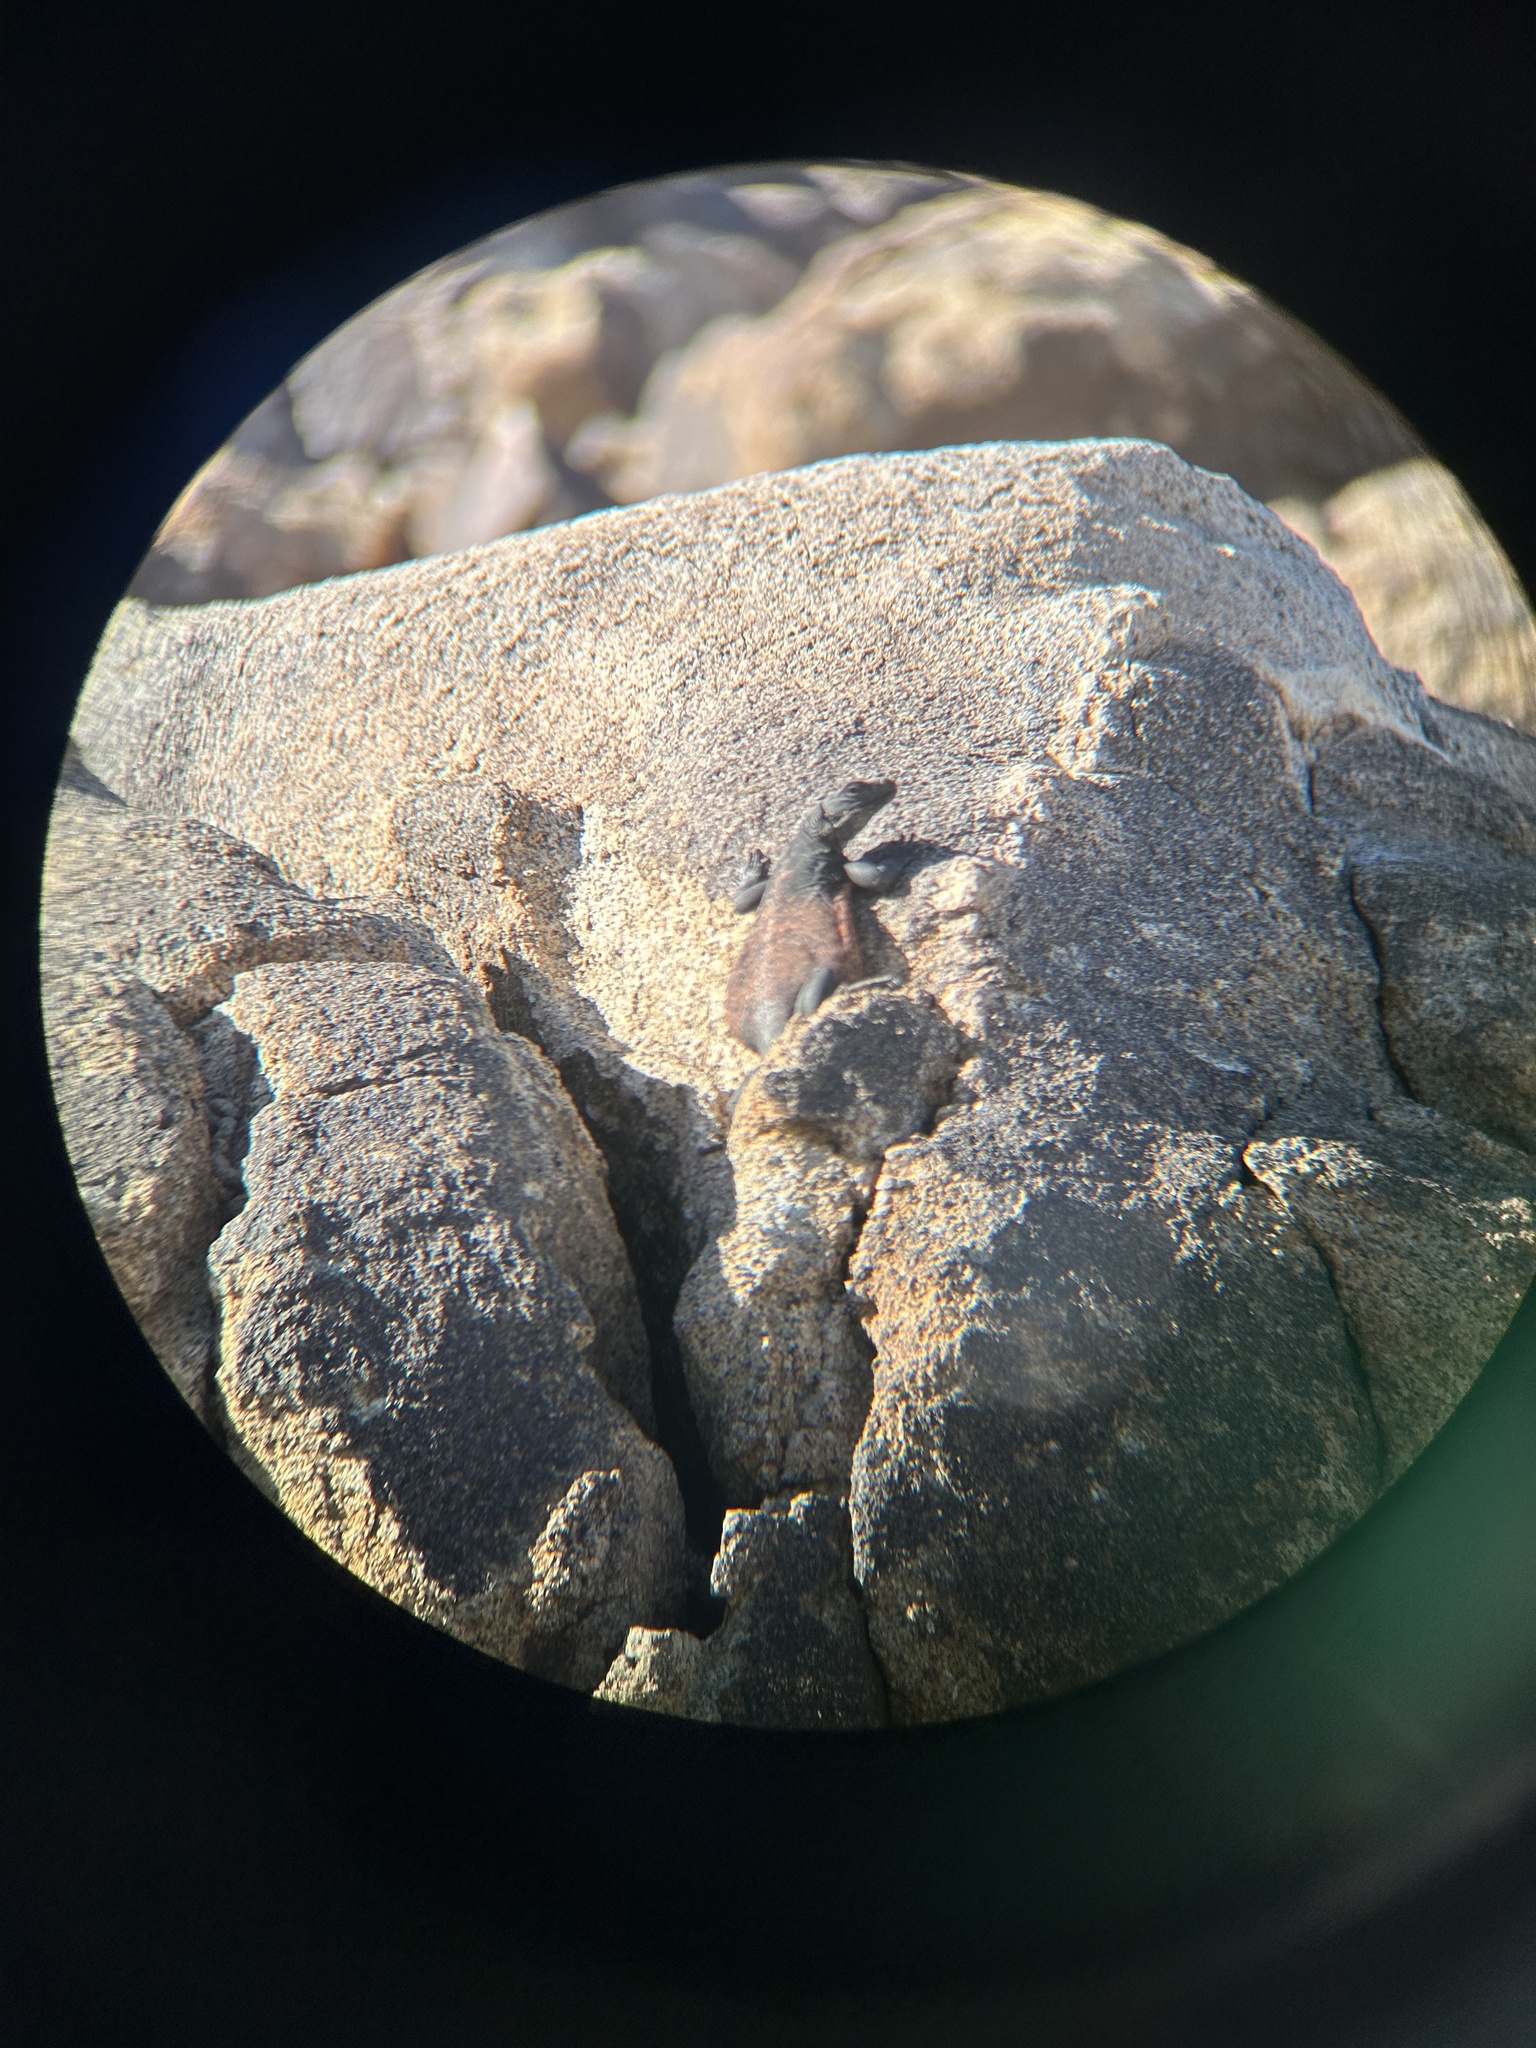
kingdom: Animalia
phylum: Chordata
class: Squamata
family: Iguanidae
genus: Sauromalus
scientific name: Sauromalus ater
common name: Northern chuckwalla
